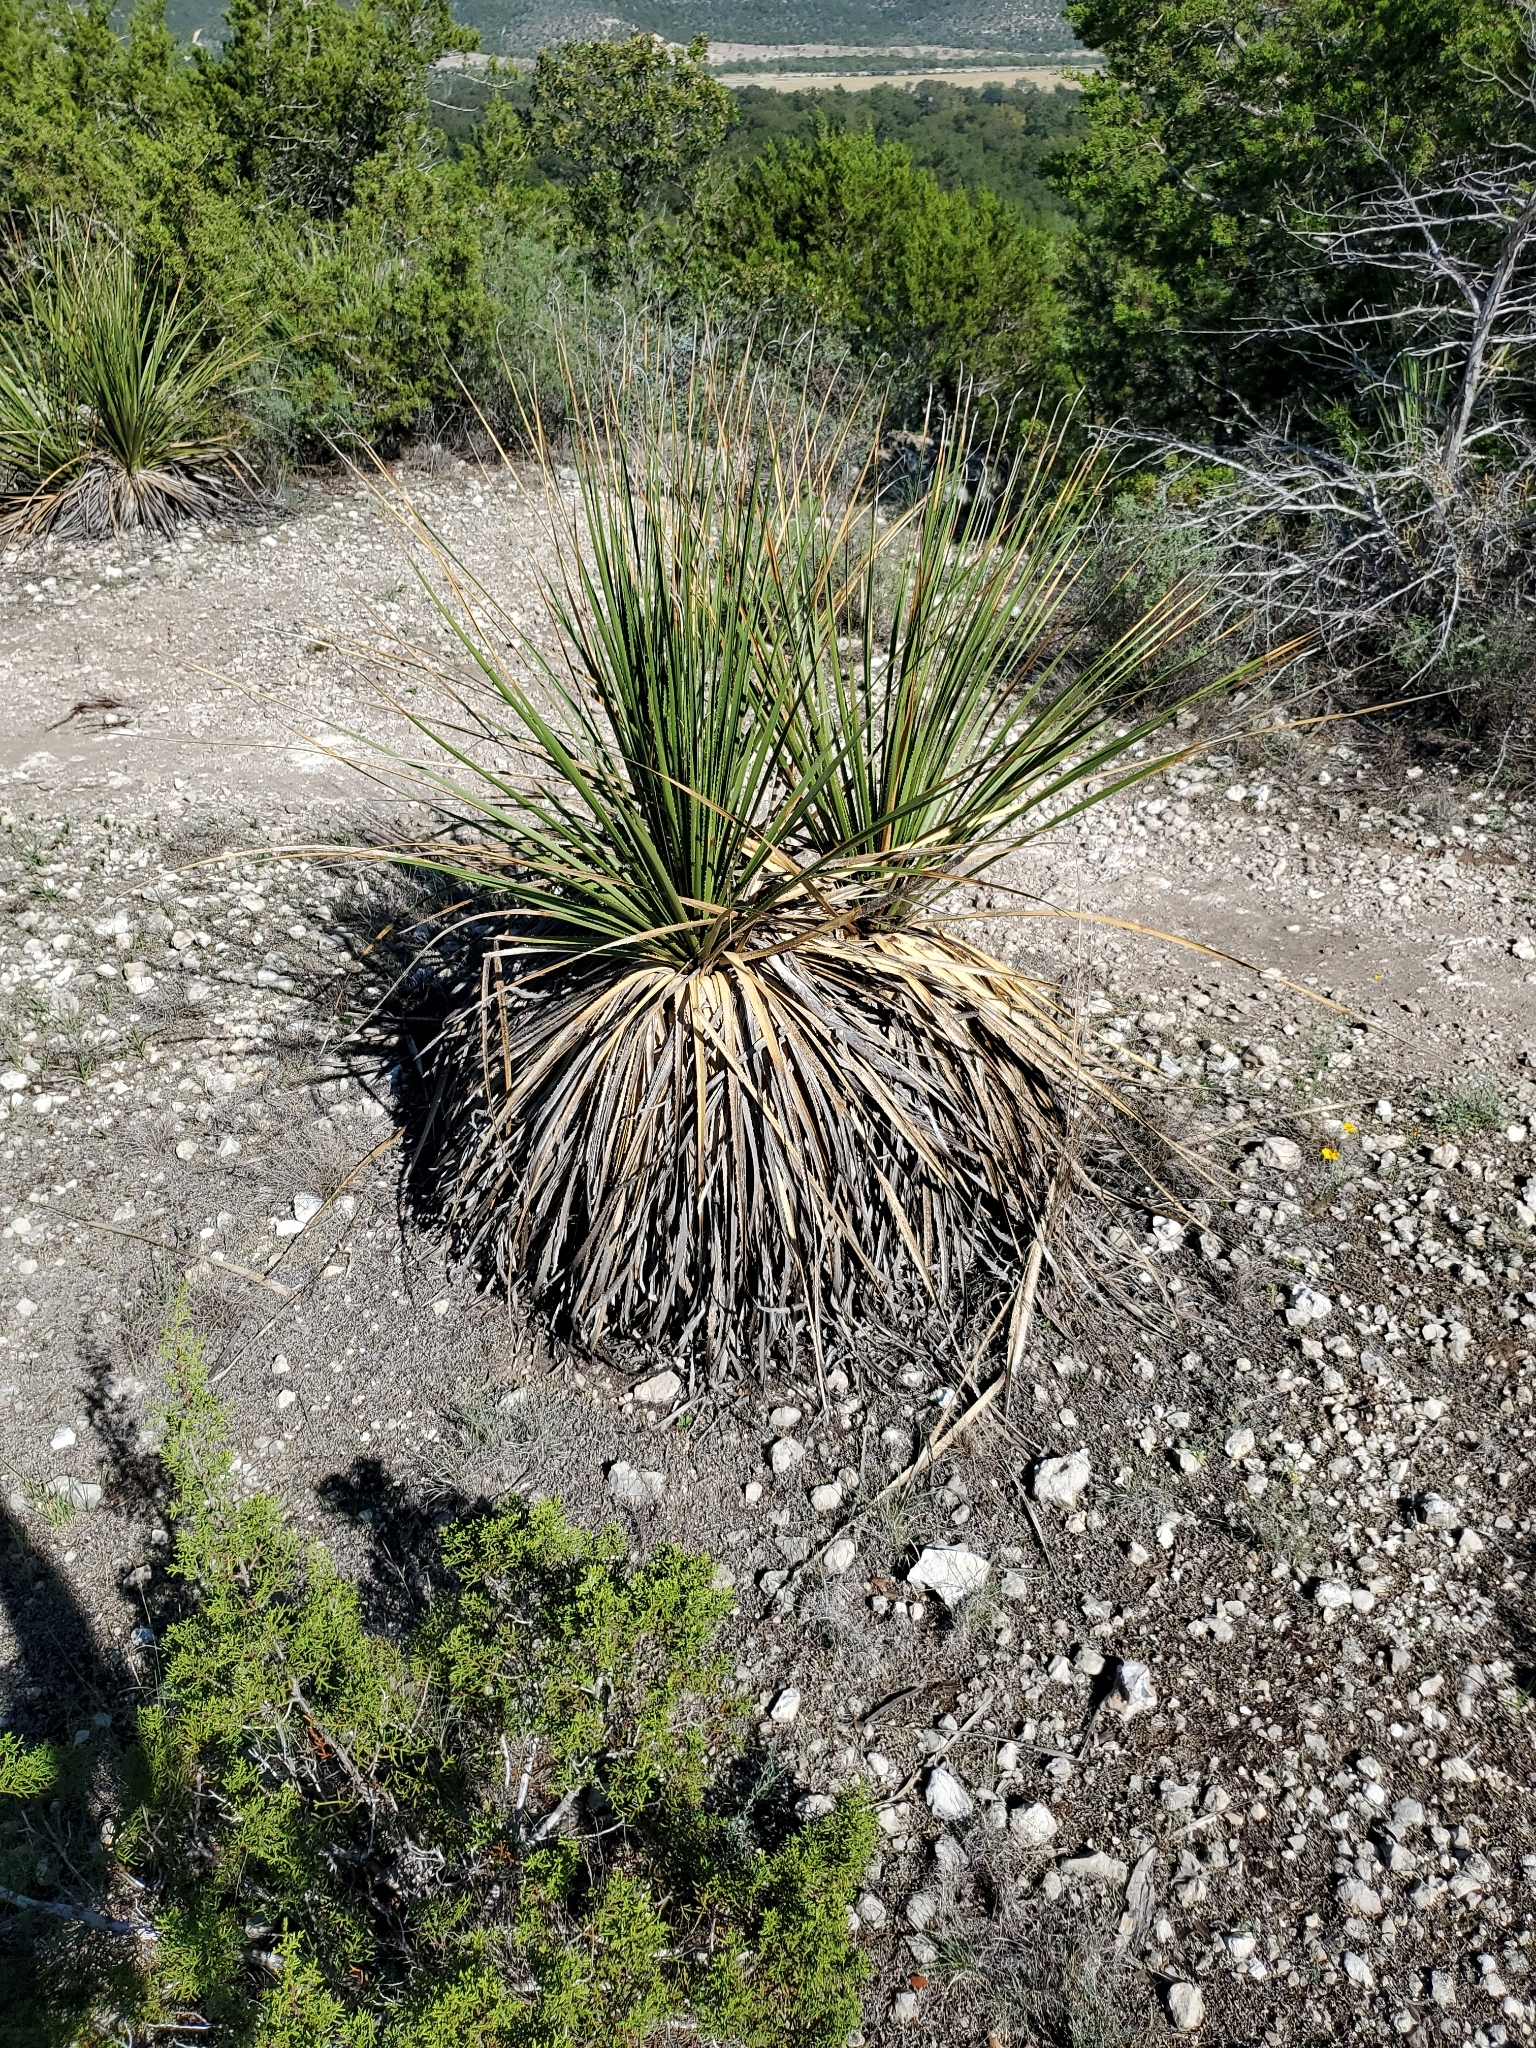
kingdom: Plantae
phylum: Tracheophyta
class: Liliopsida
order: Asparagales
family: Asparagaceae
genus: Dasylirion
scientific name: Dasylirion texanum
